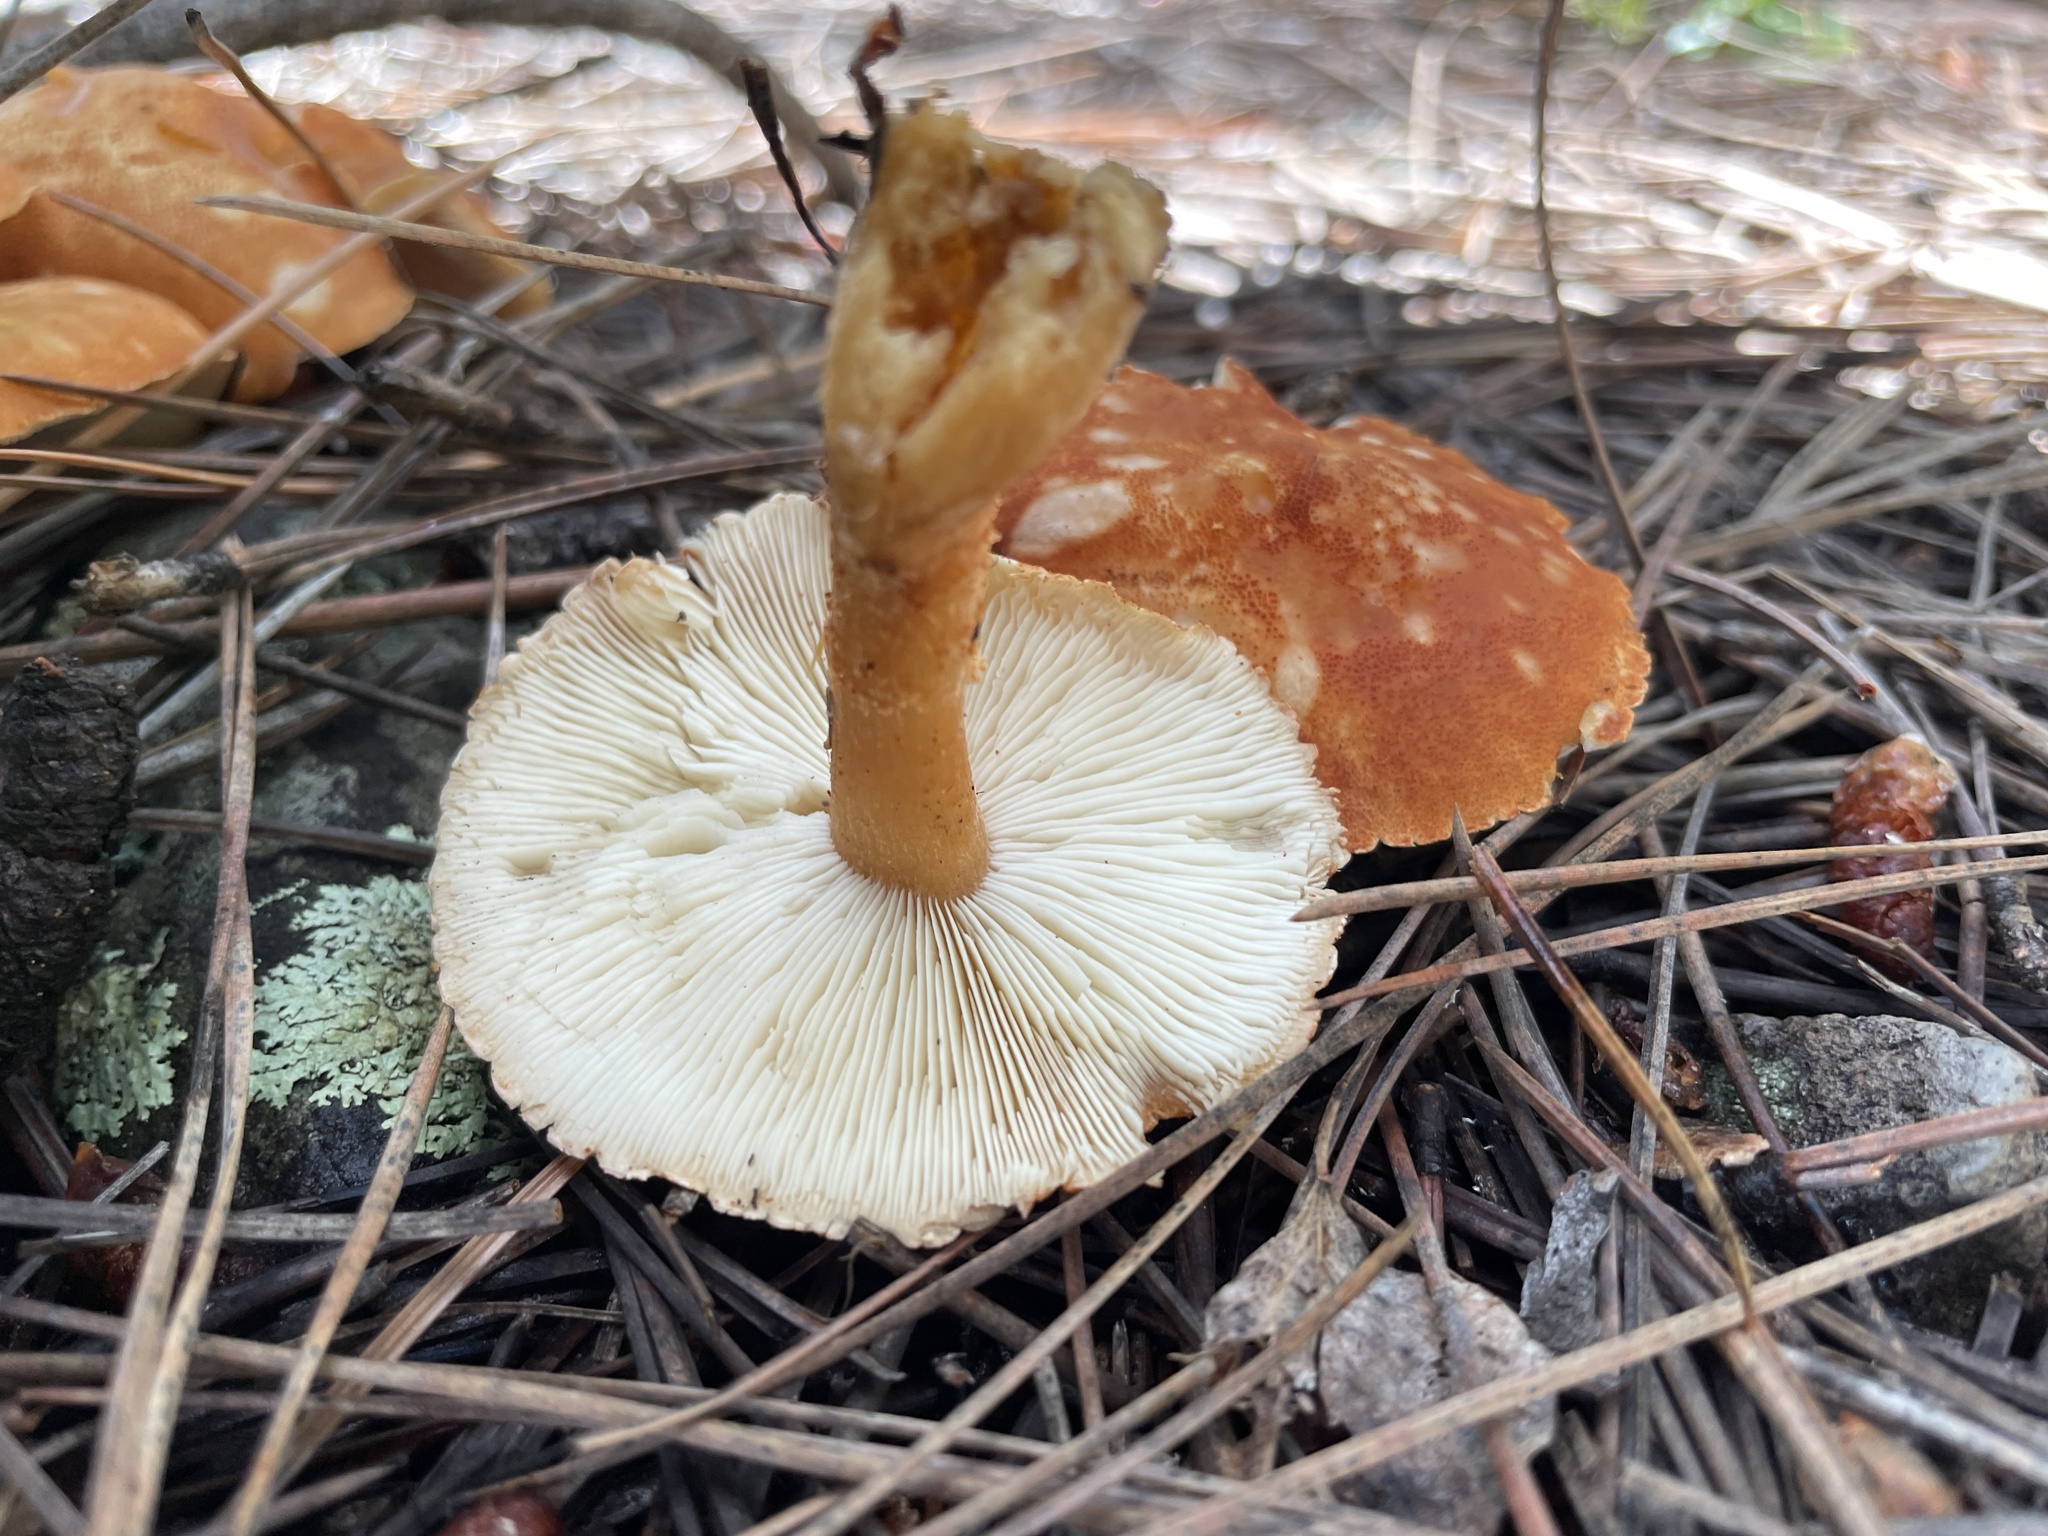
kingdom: Fungi
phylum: Basidiomycota
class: Agaricomycetes
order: Agaricales
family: Agaricaceae
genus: Cystodermella
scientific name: Cystodermella cinnabarina
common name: Cinnabar powdercap
